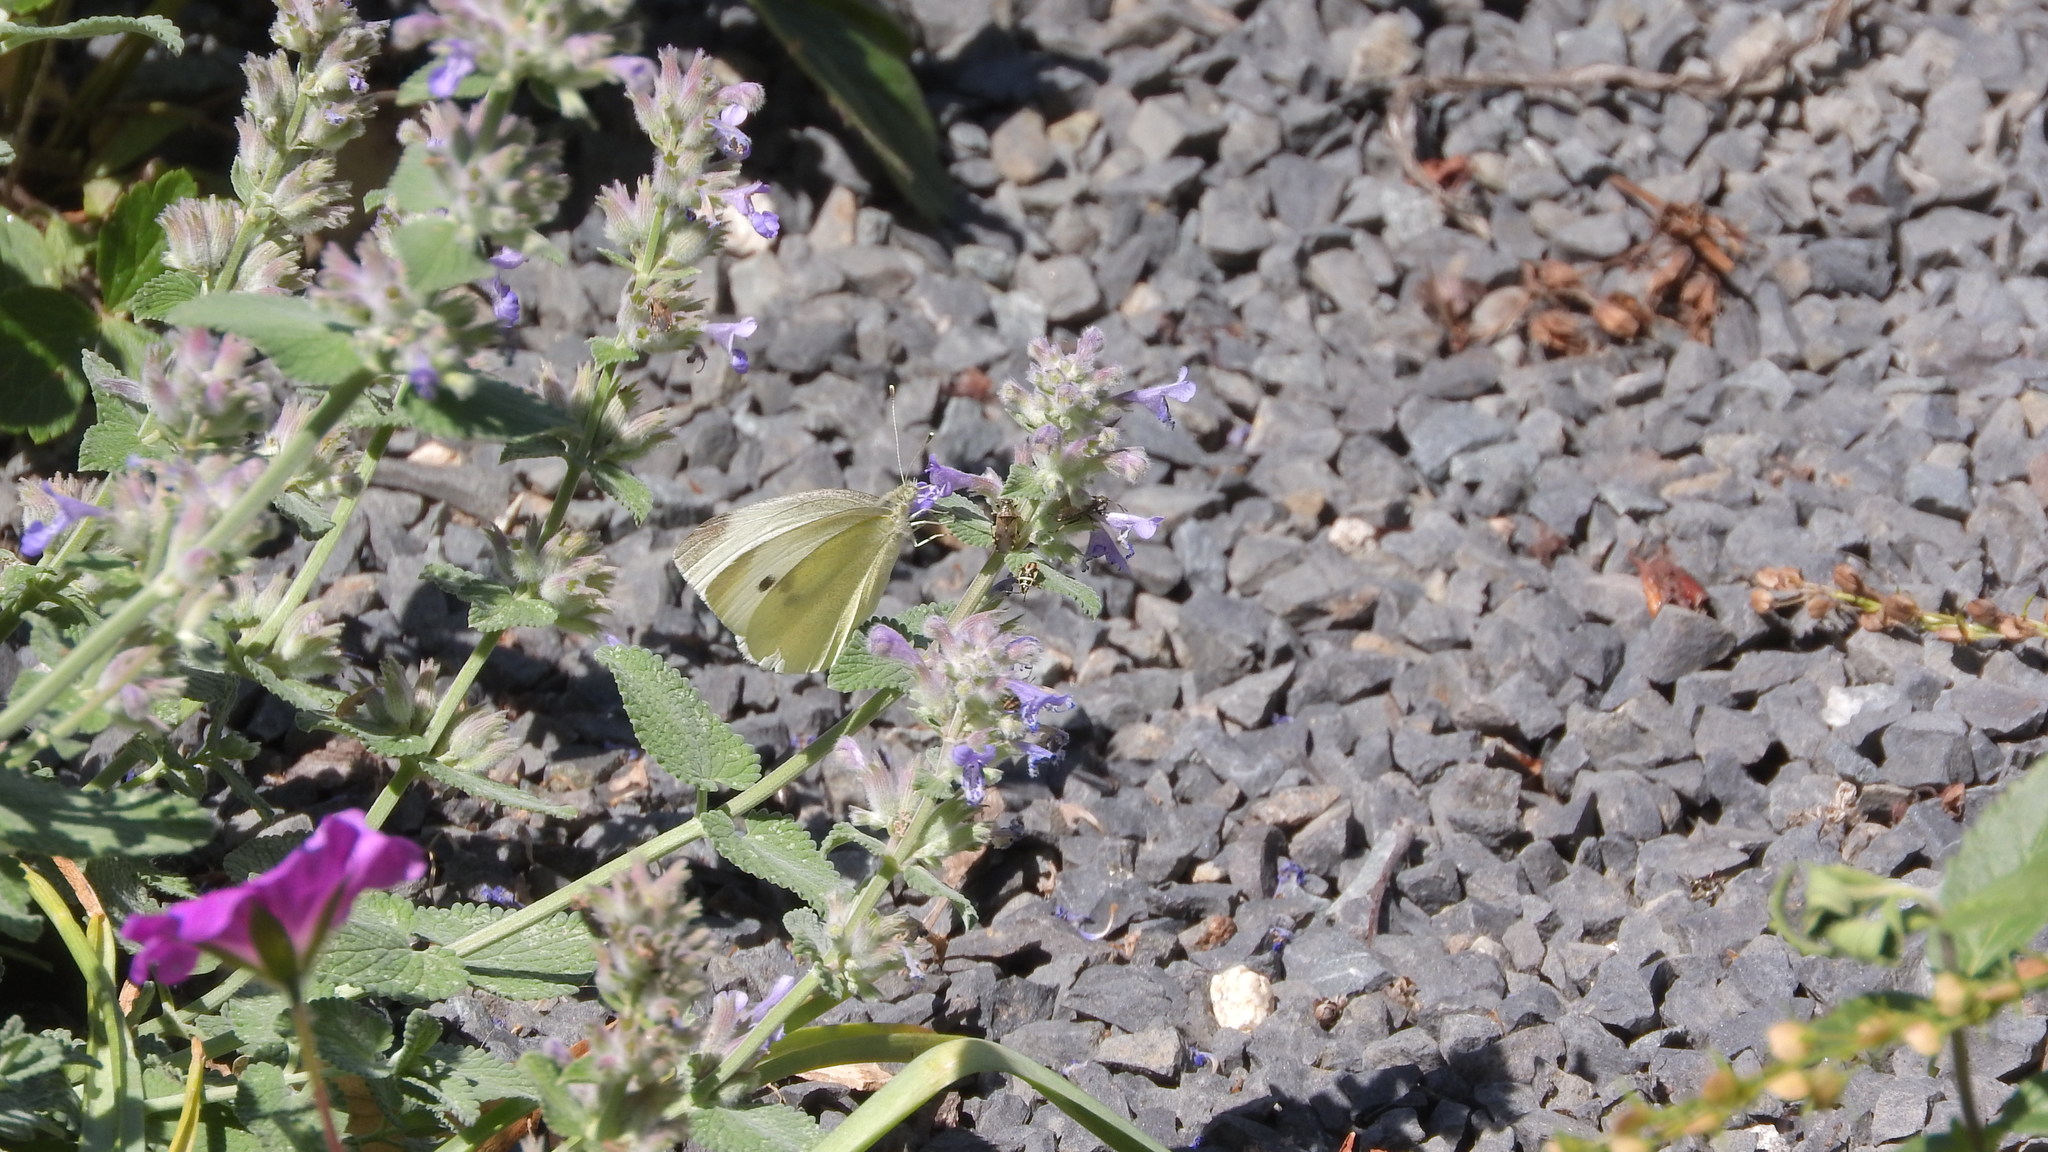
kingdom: Animalia
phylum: Arthropoda
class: Insecta
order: Lepidoptera
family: Pieridae
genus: Pieris
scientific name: Pieris rapae
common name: Small white
